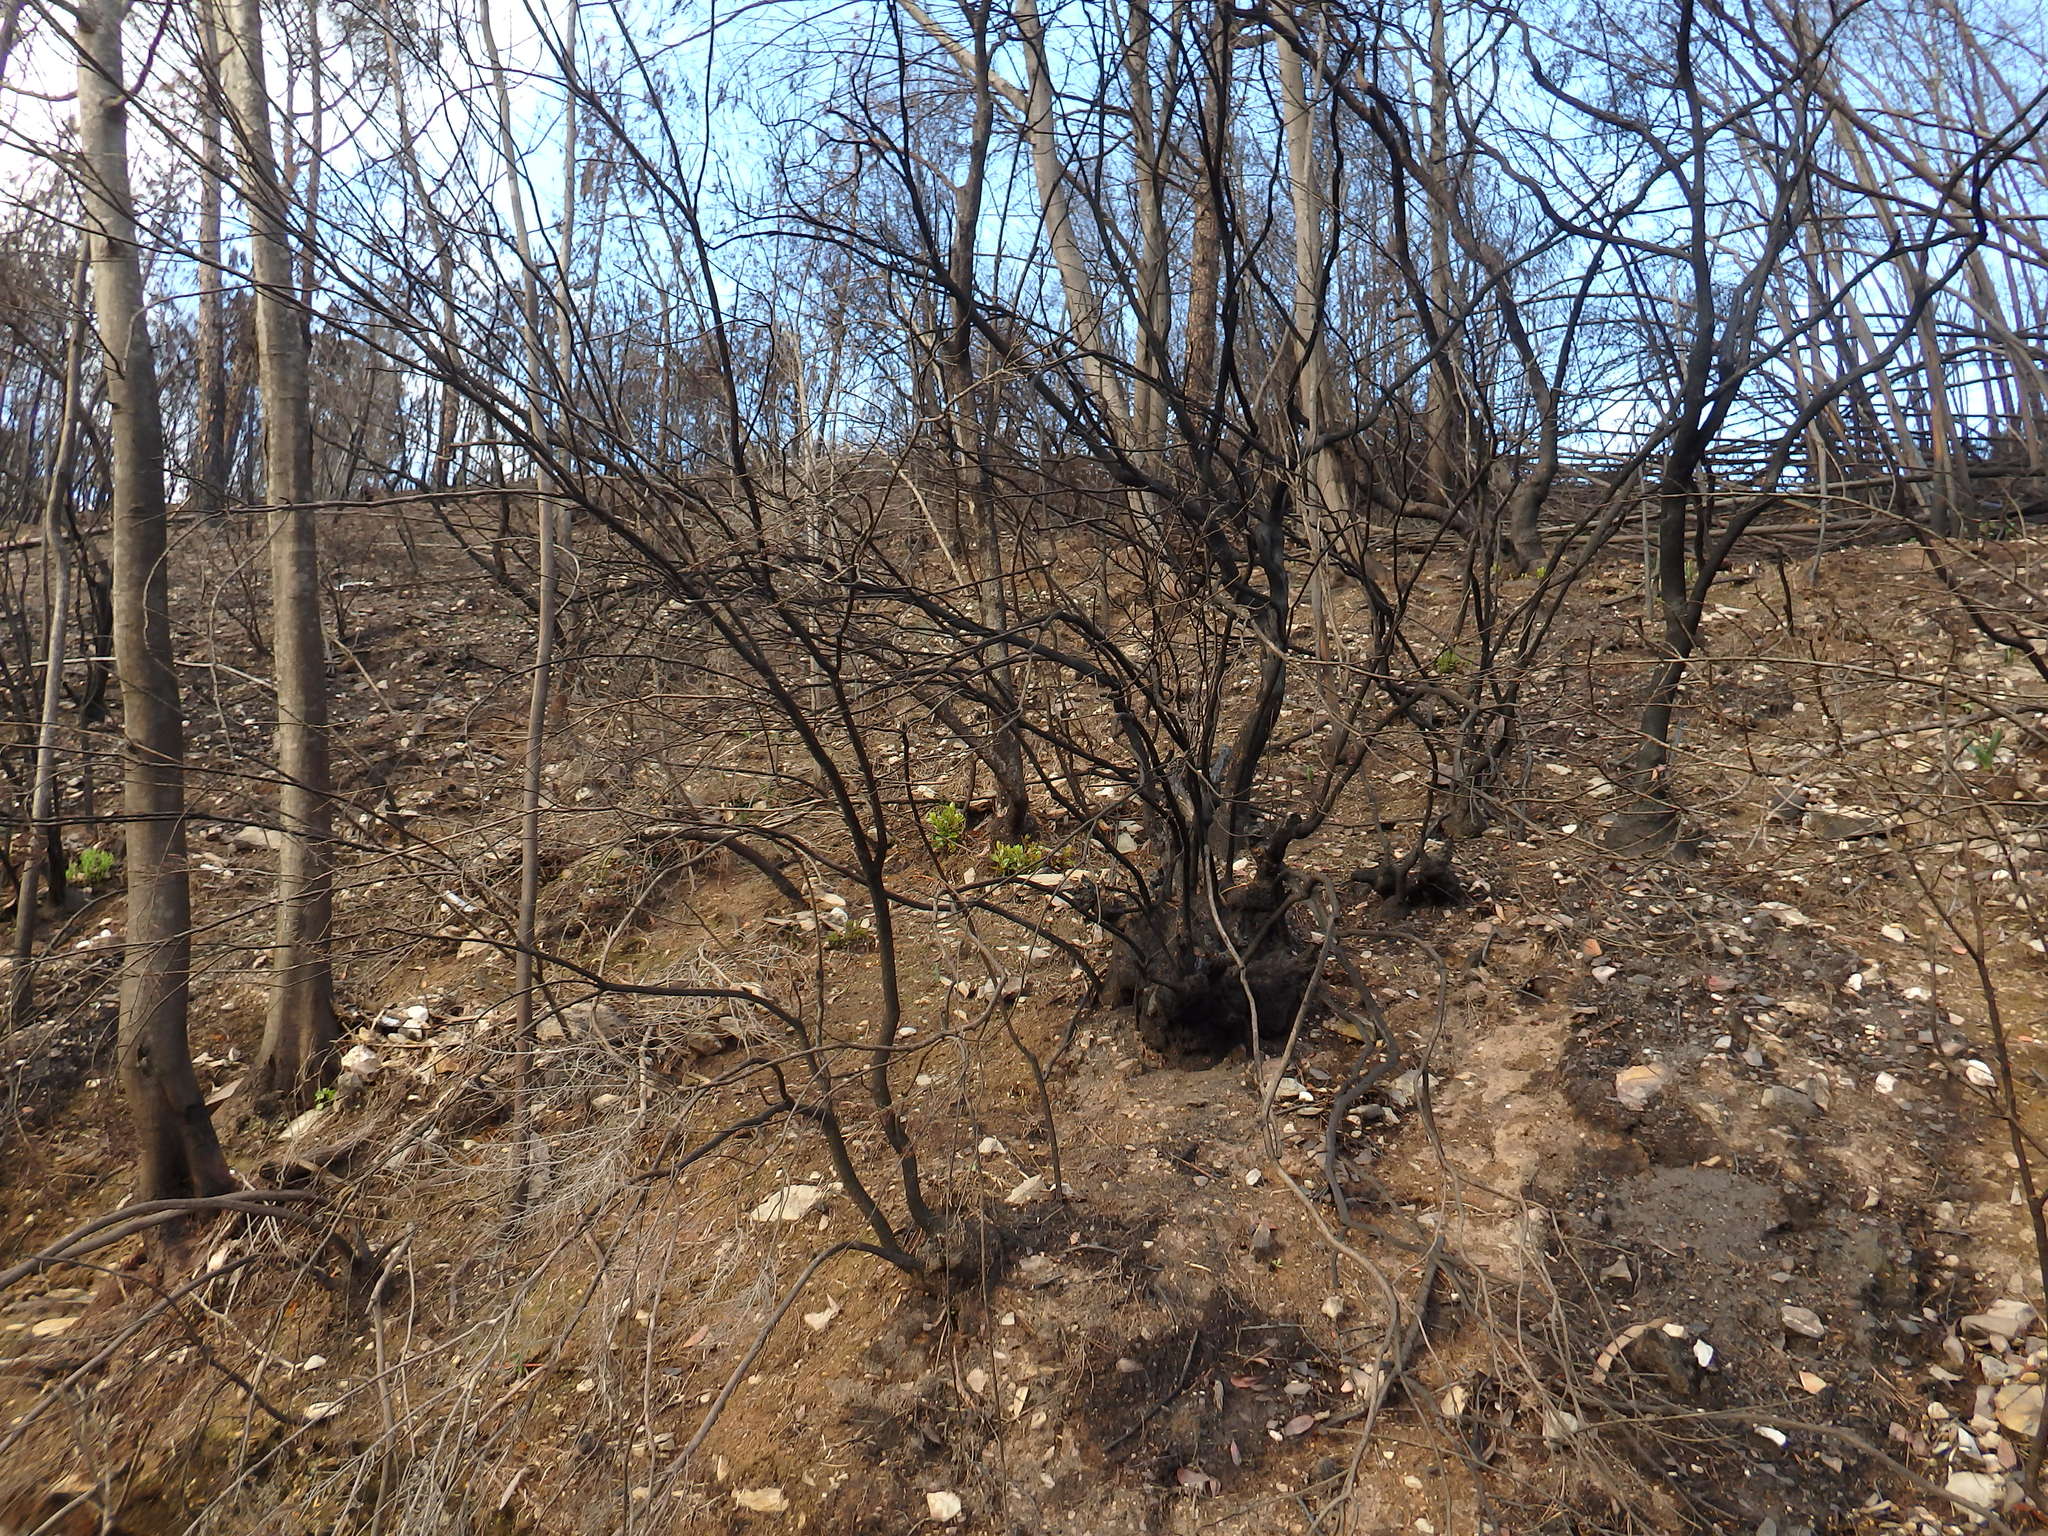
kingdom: Plantae
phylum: Tracheophyta
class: Magnoliopsida
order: Ericales
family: Ericaceae
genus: Arbutus
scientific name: Arbutus unedo
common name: Strawberry-tree
